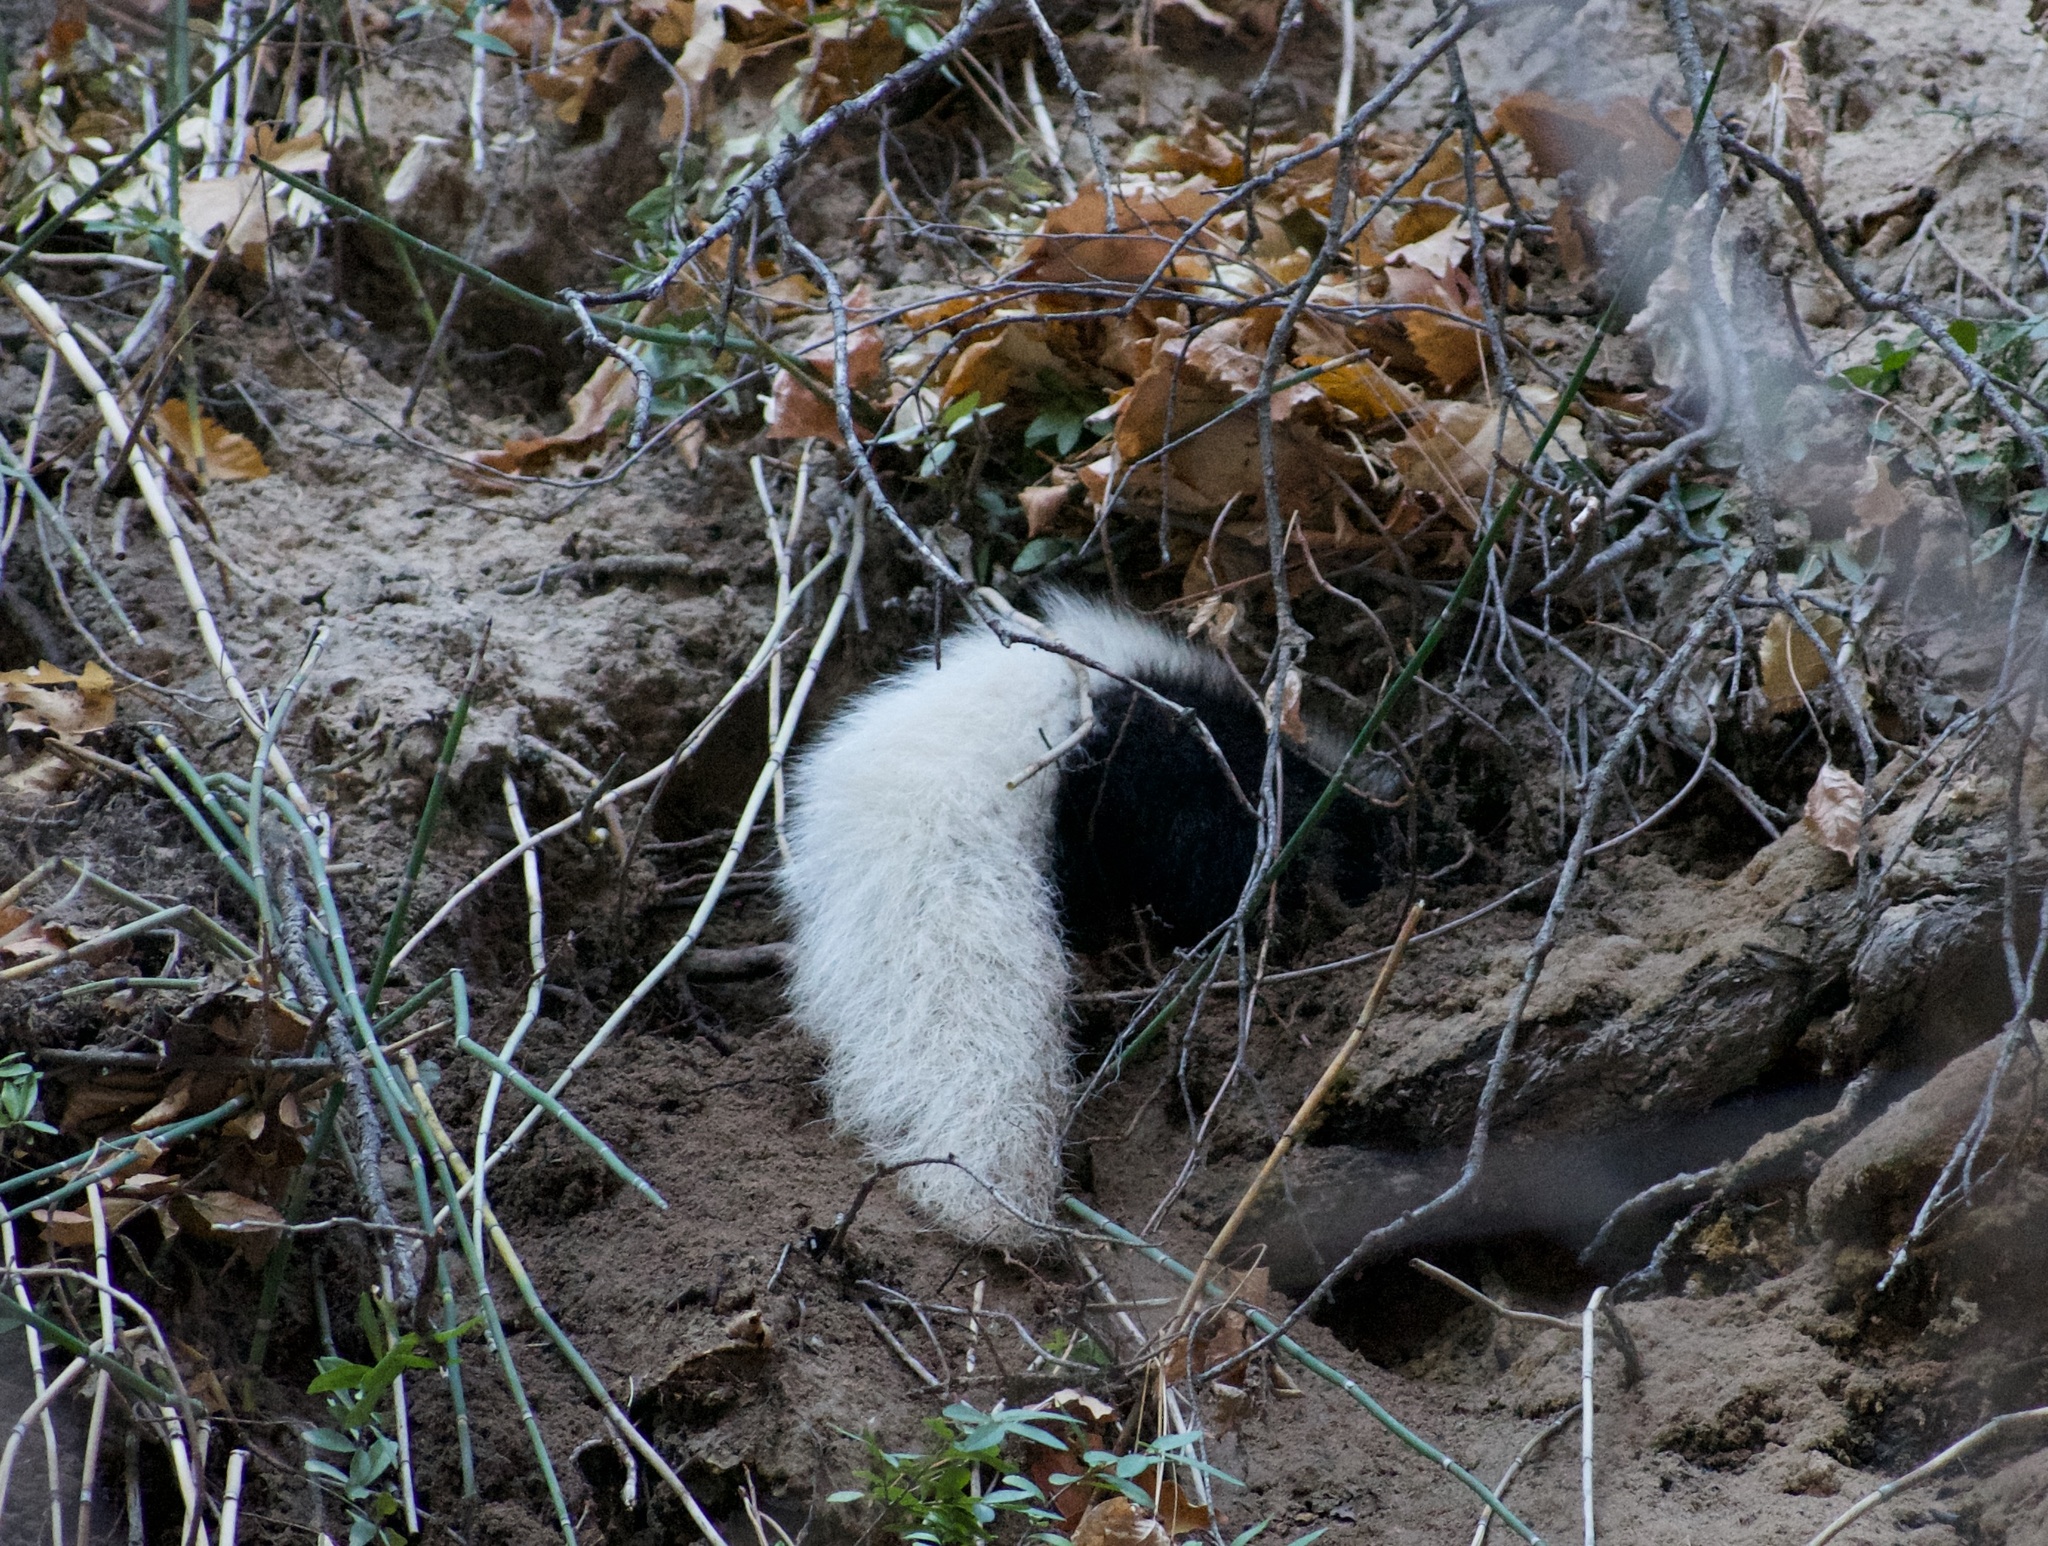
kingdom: Animalia
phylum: Chordata
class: Mammalia
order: Carnivora
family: Mephitidae
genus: Mephitis
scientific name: Mephitis mephitis
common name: Striped skunk
